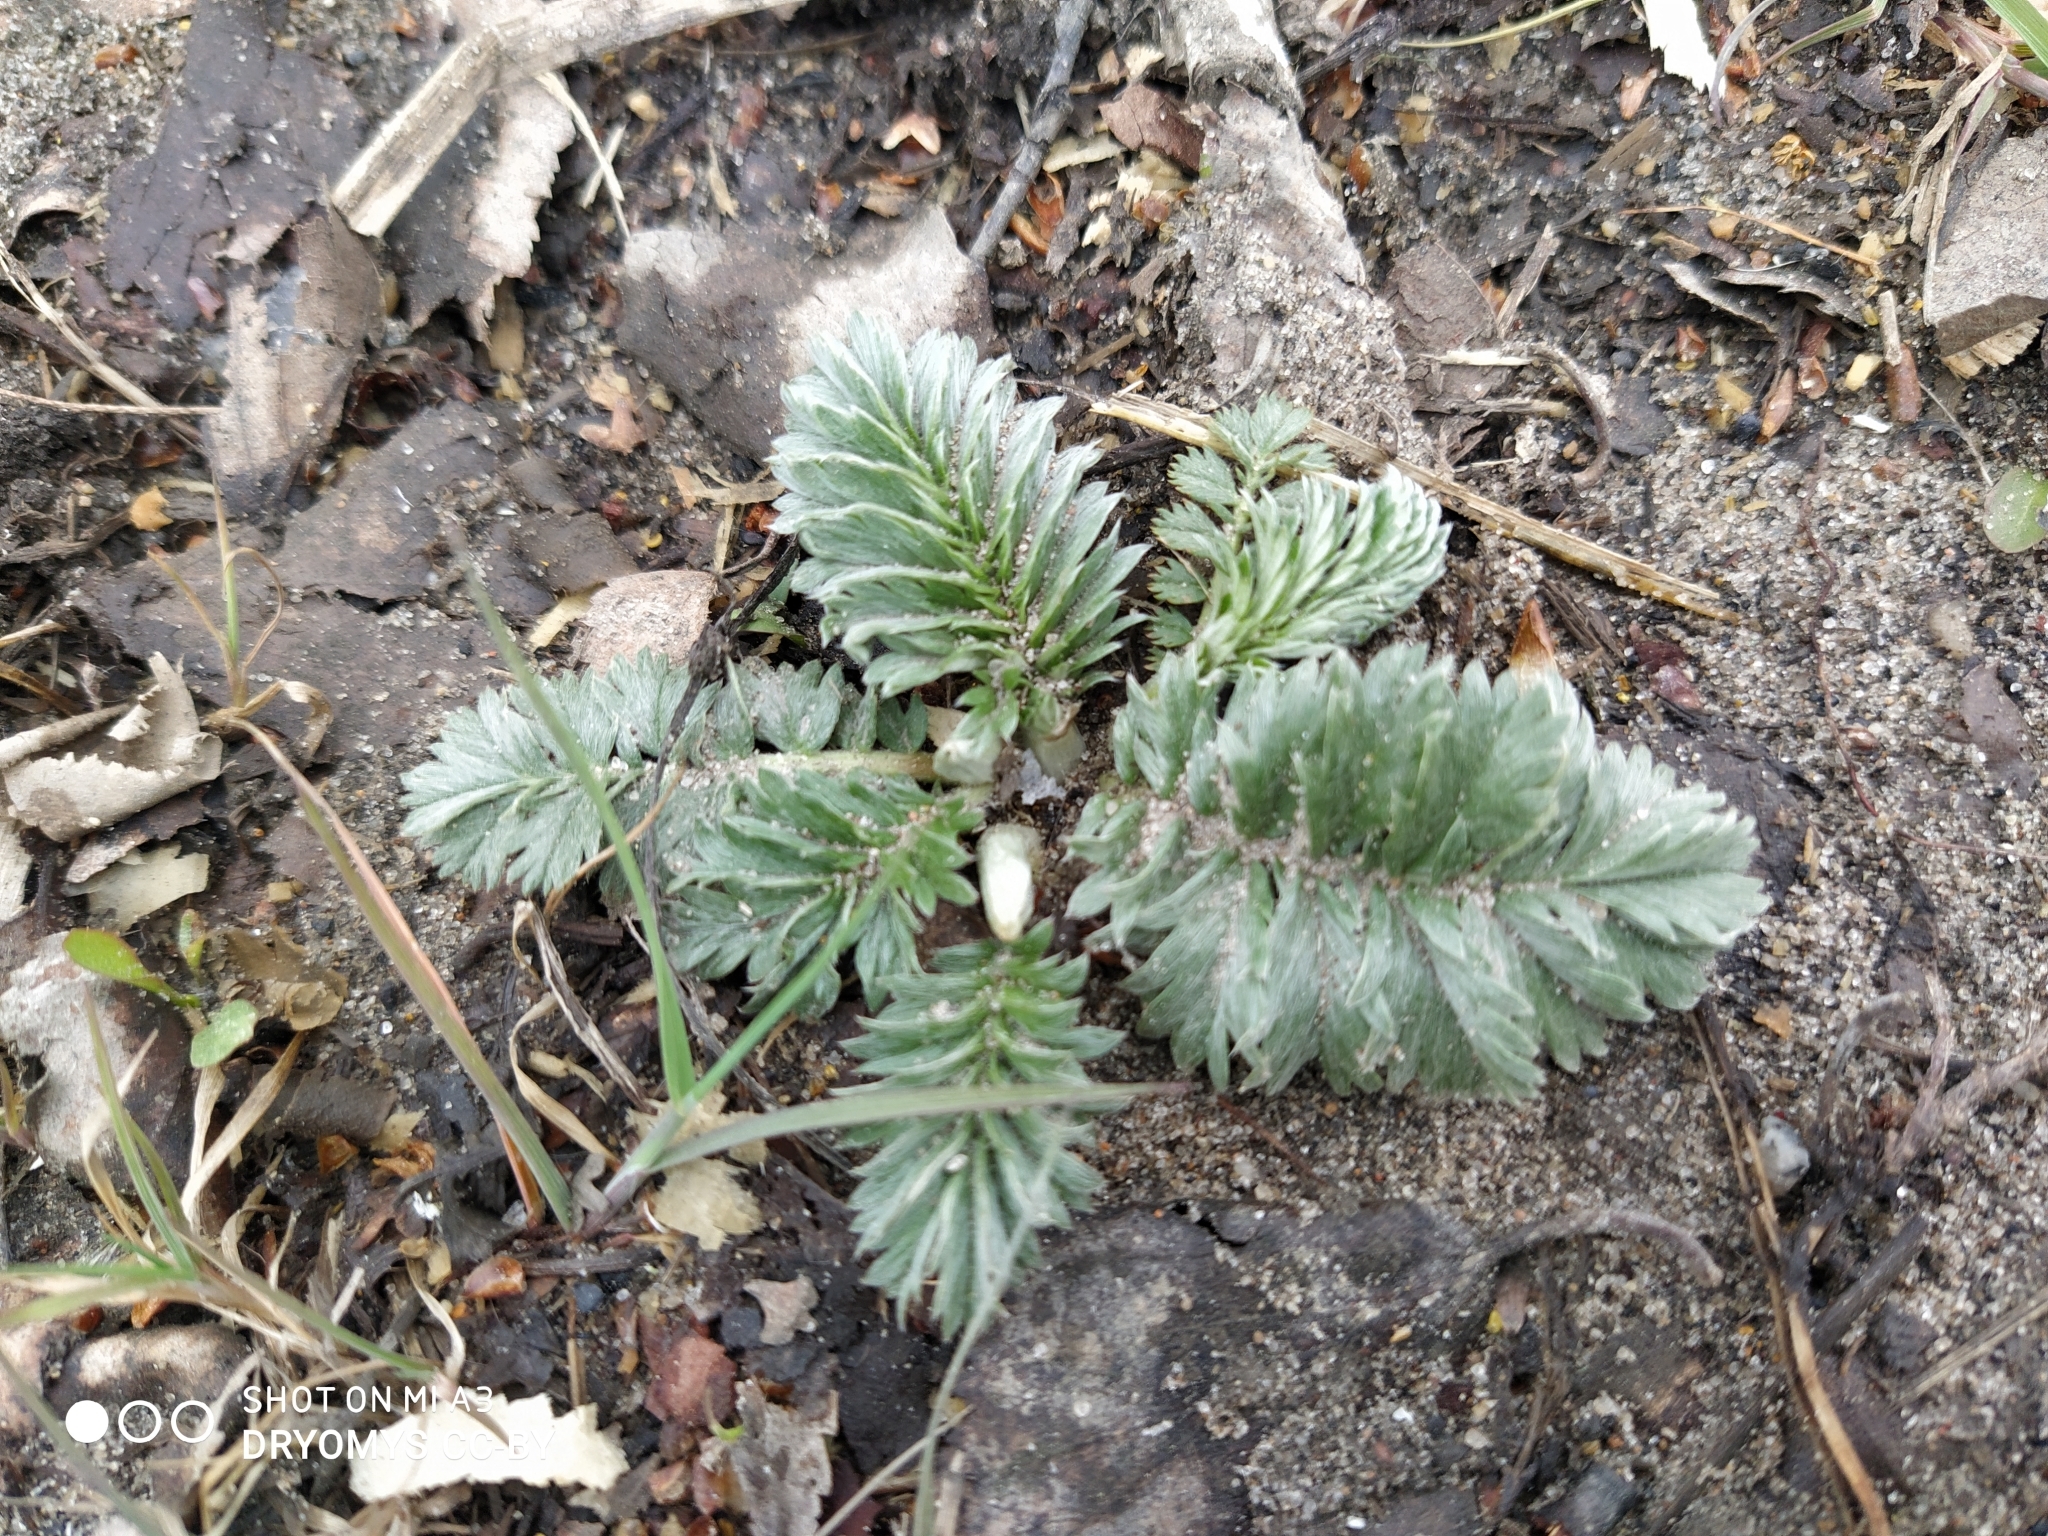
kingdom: Plantae
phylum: Tracheophyta
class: Magnoliopsida
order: Rosales
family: Rosaceae
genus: Argentina
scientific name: Argentina anserina
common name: Common silverweed
